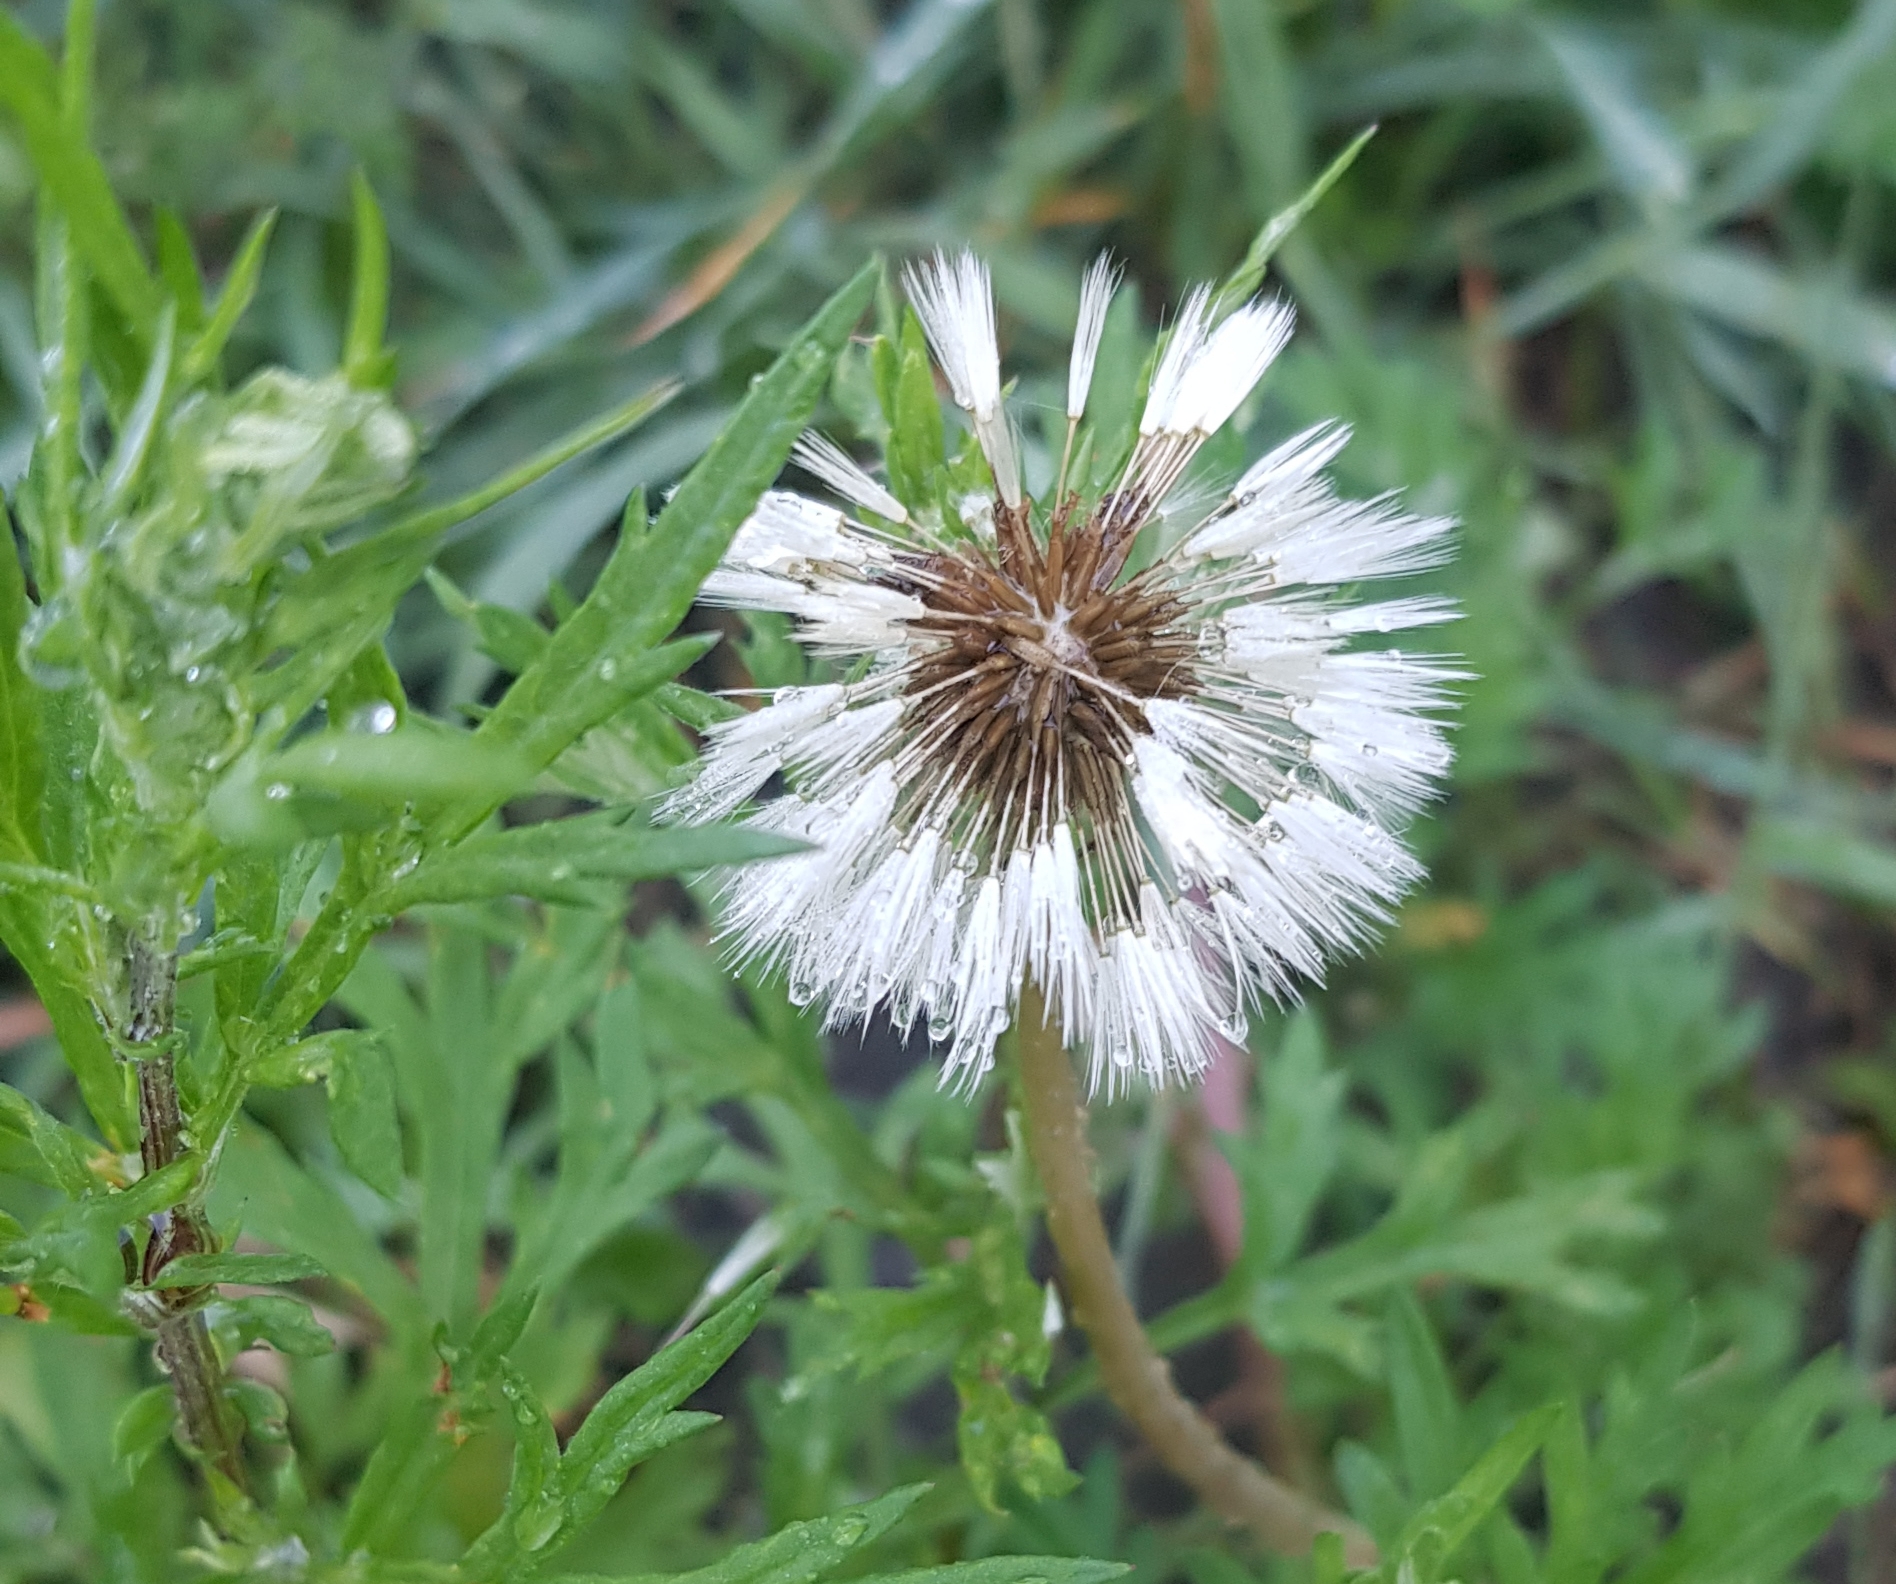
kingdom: Plantae
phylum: Tracheophyta
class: Magnoliopsida
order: Asterales
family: Asteraceae
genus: Taraxacum
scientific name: Taraxacum officinale
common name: Common dandelion
